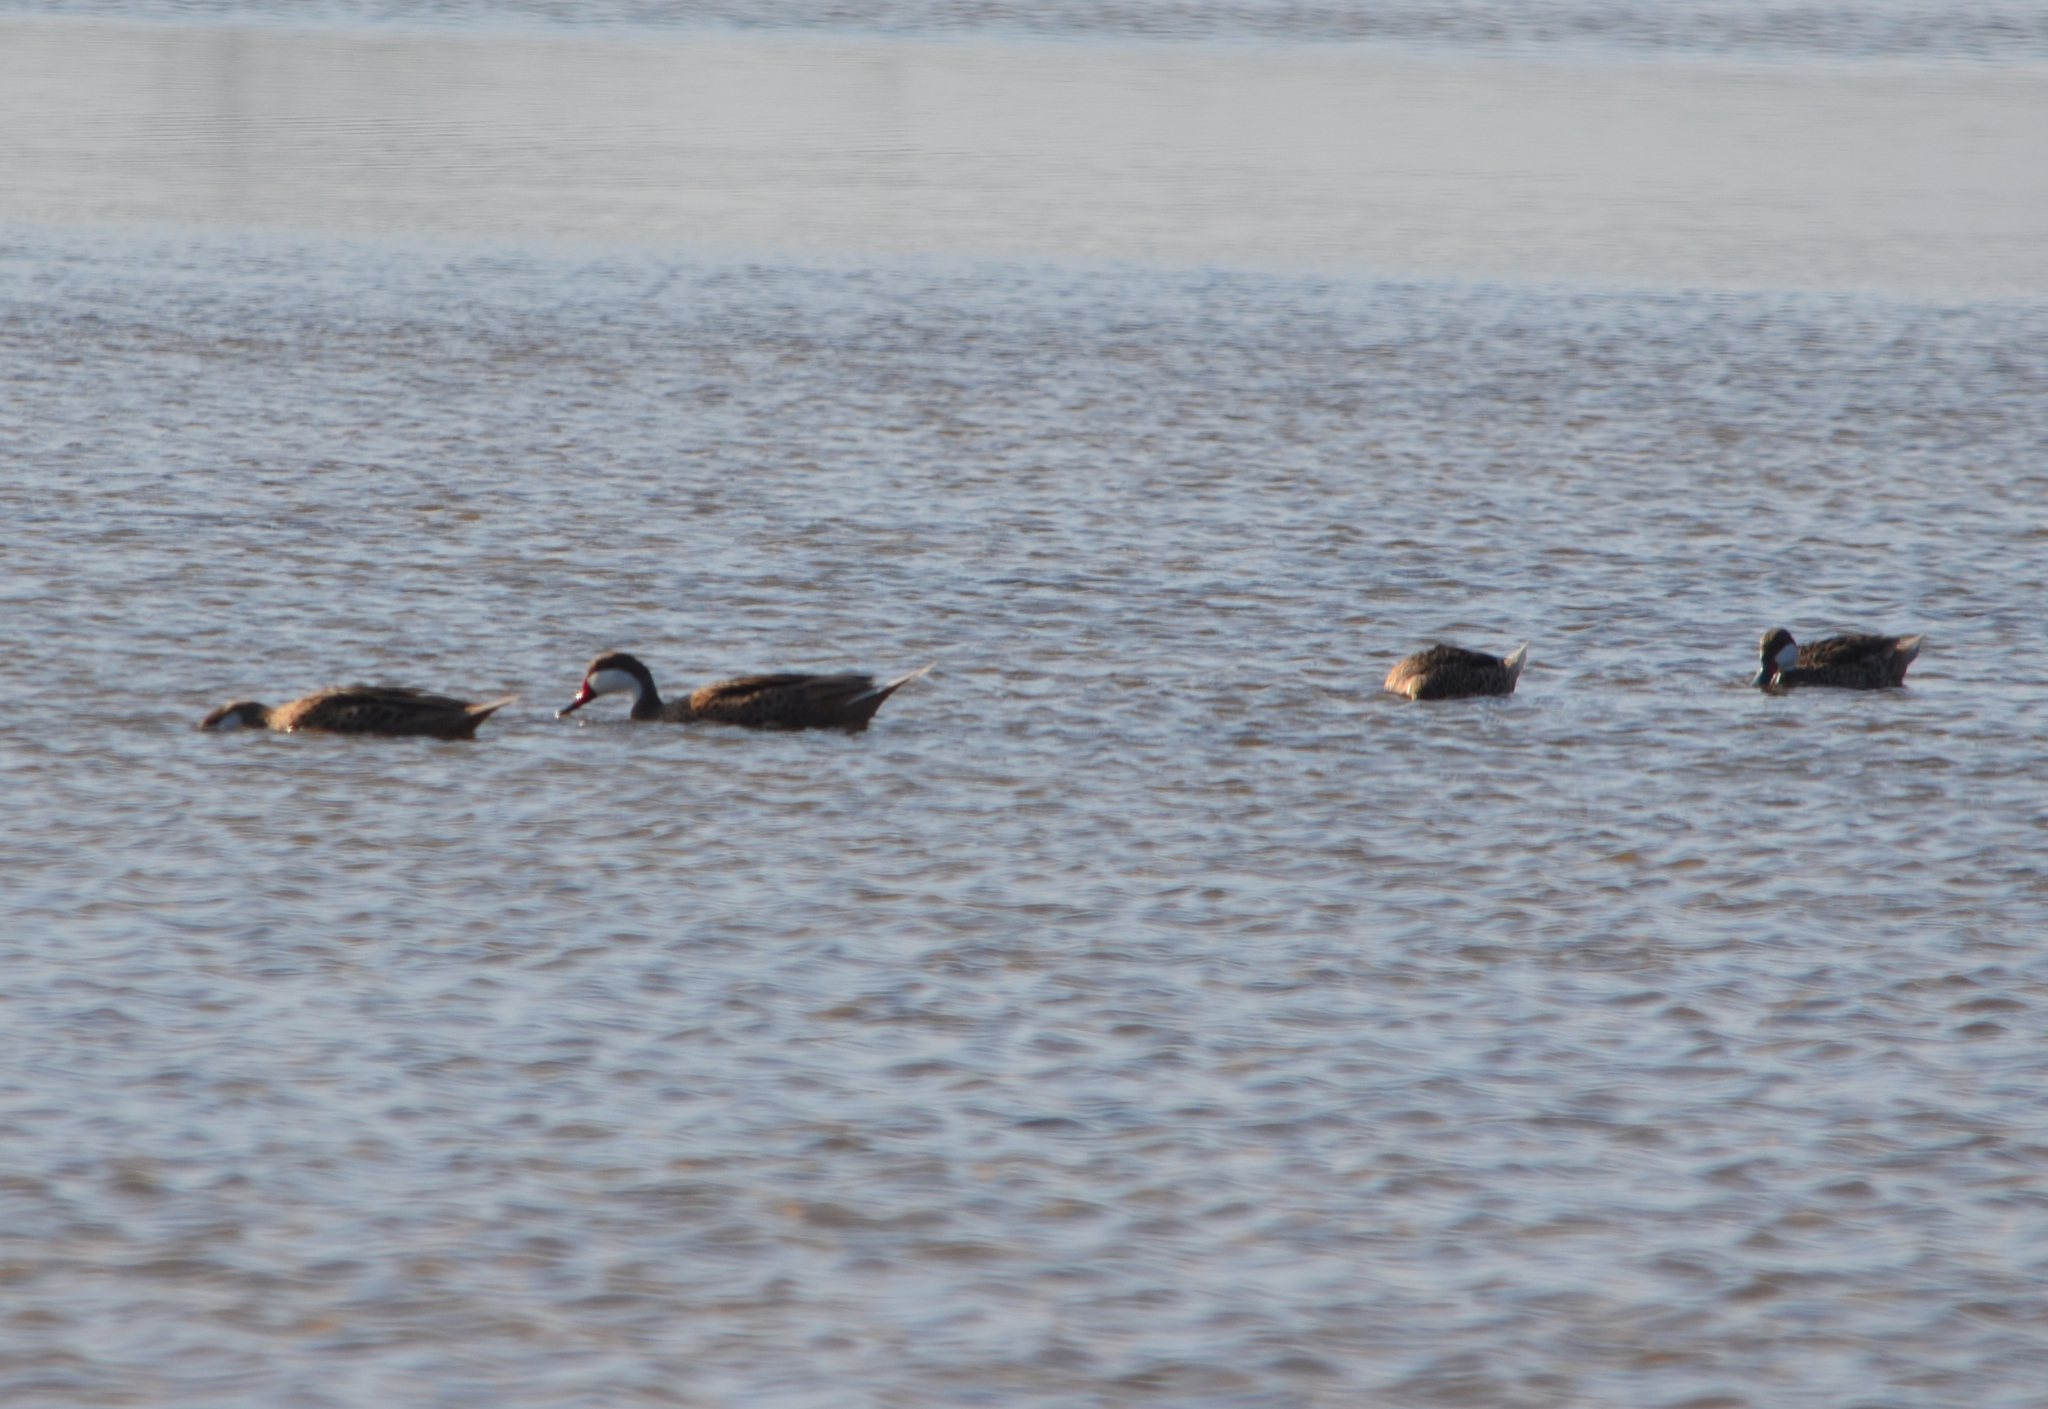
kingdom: Animalia
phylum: Chordata
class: Aves
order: Anseriformes
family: Anatidae
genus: Anas
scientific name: Anas bahamensis
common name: White-cheeked pintail
